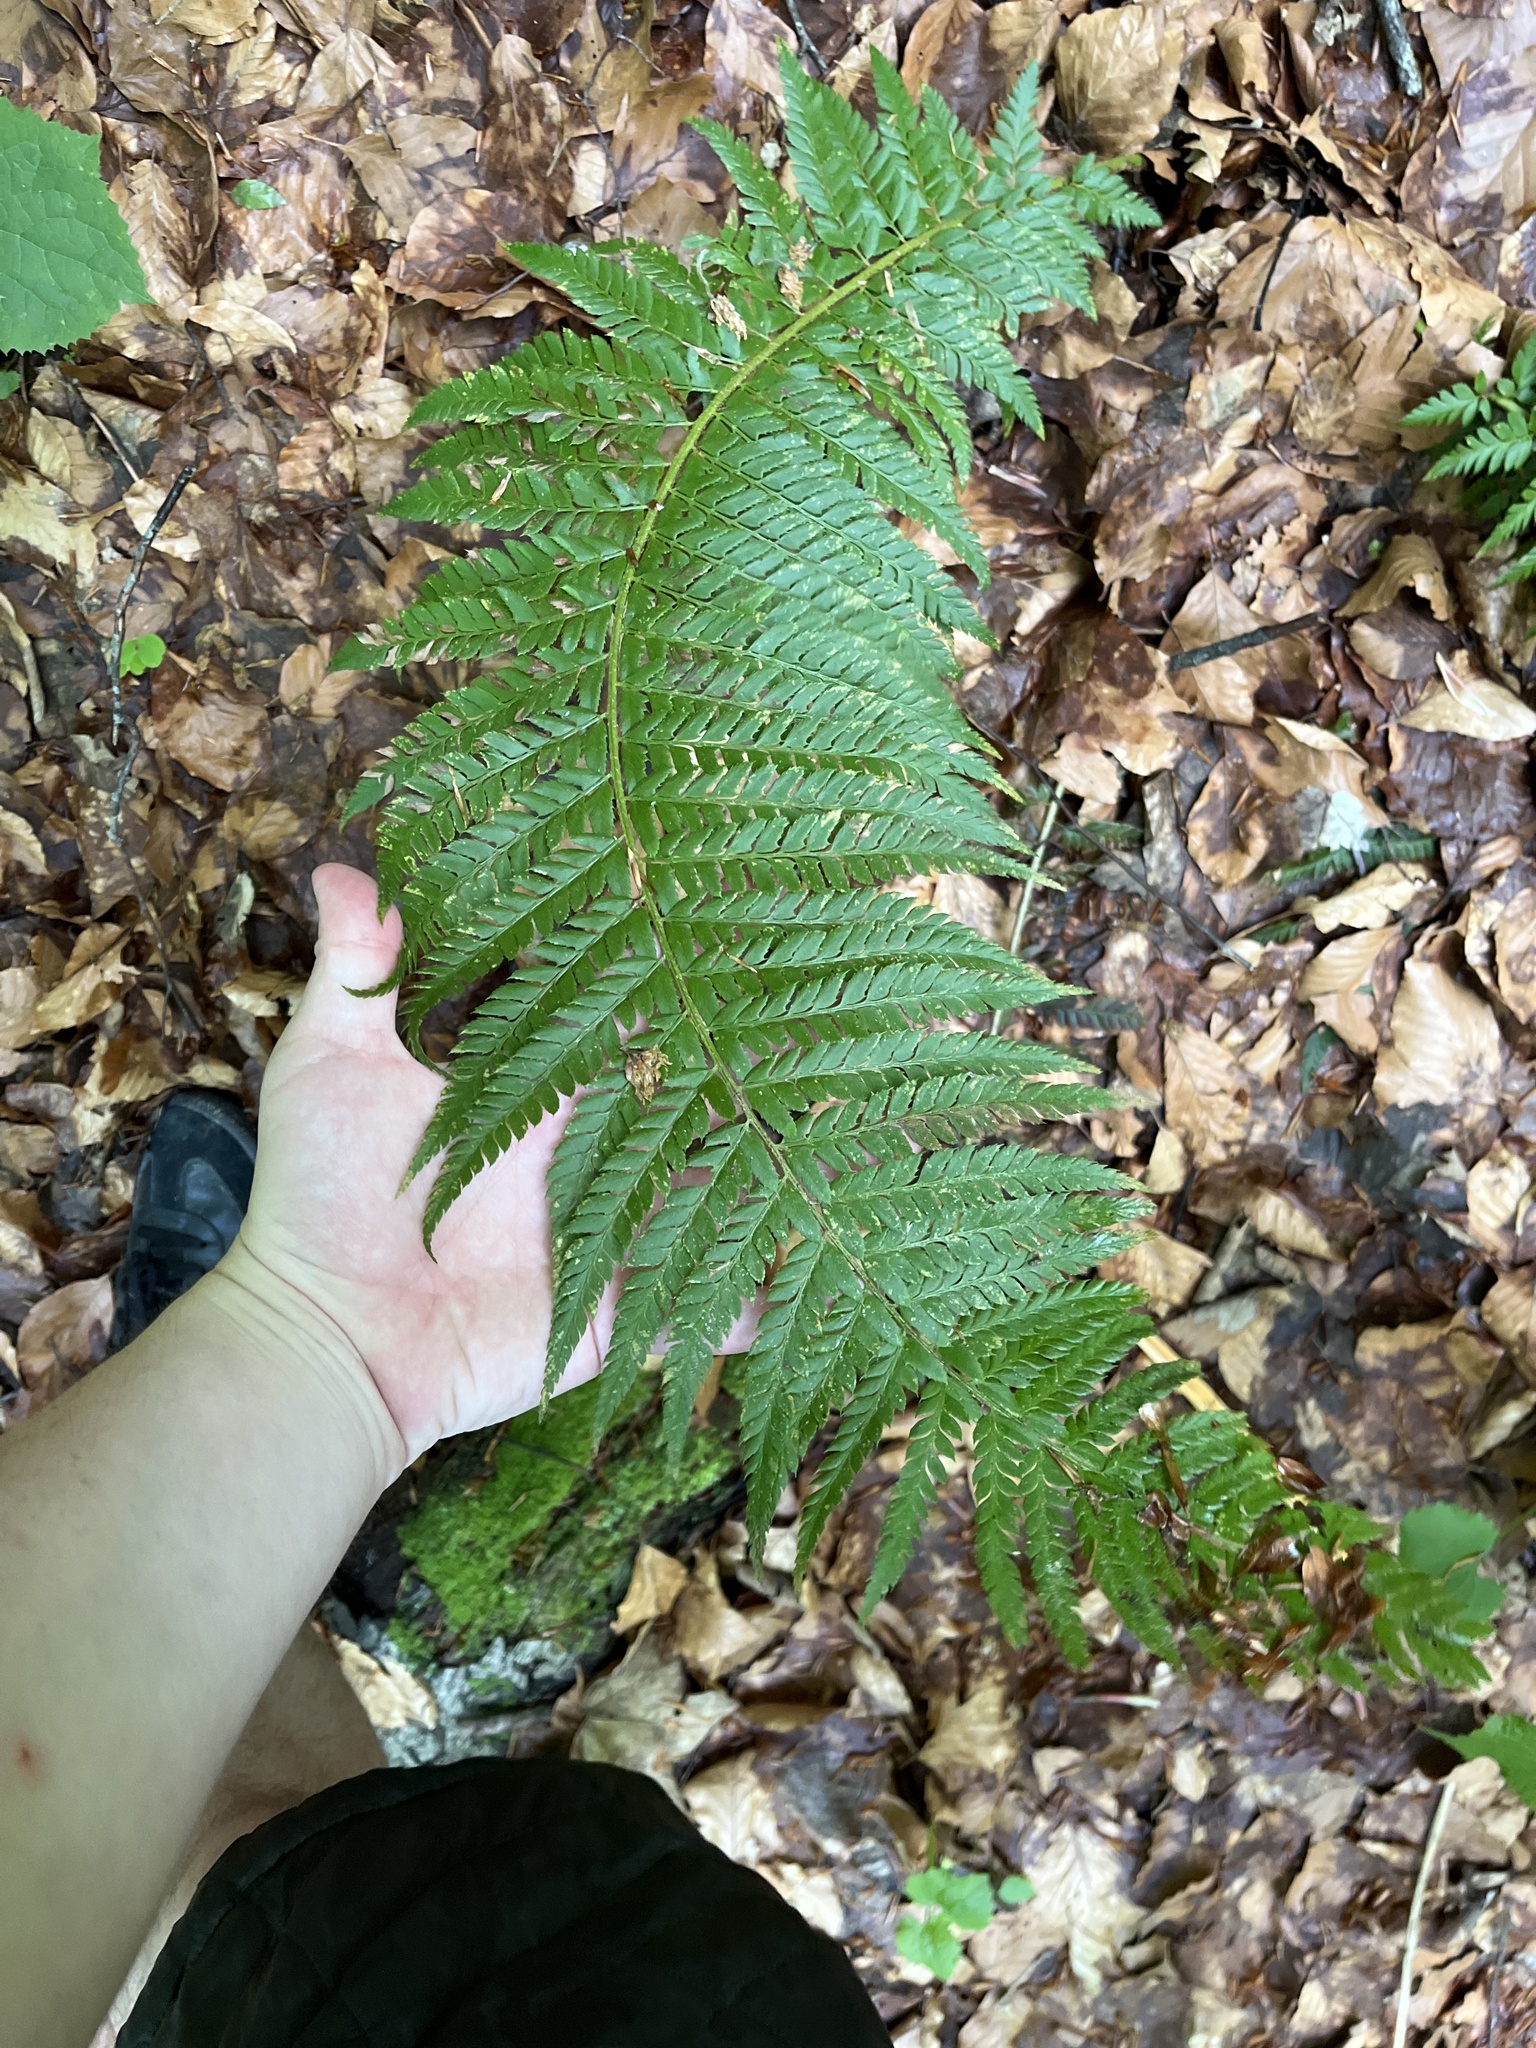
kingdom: Plantae
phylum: Tracheophyta
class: Polypodiopsida
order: Polypodiales
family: Dryopteridaceae
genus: Polystichum
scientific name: Polystichum aculeatum
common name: Hard shield-fern
